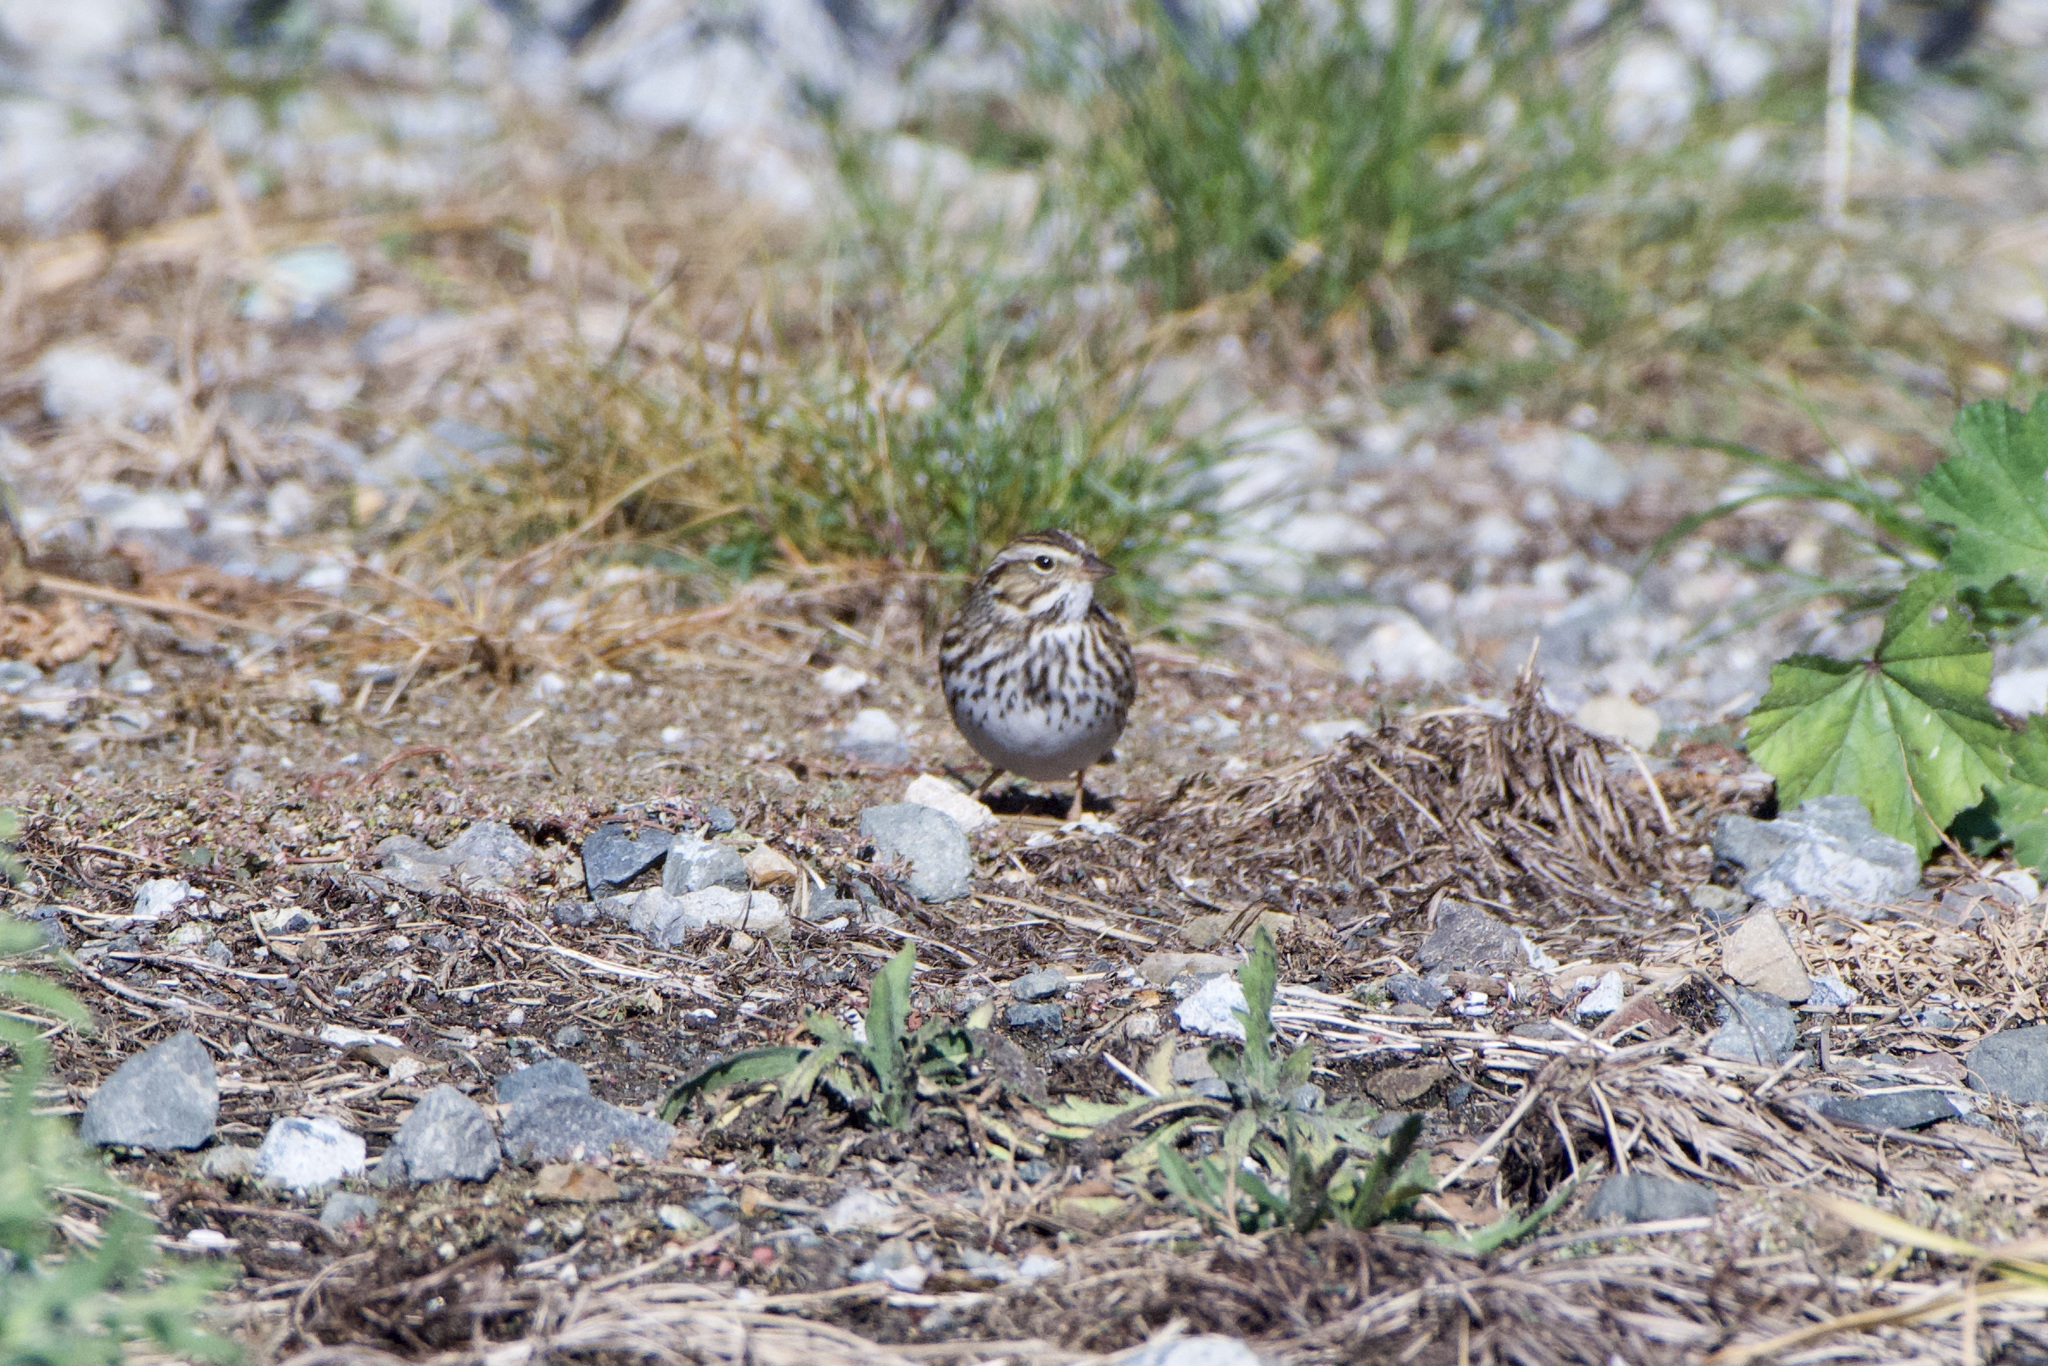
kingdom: Animalia
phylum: Chordata
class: Aves
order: Passeriformes
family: Passerellidae
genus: Passerculus
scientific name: Passerculus sandwichensis
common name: Savannah sparrow
